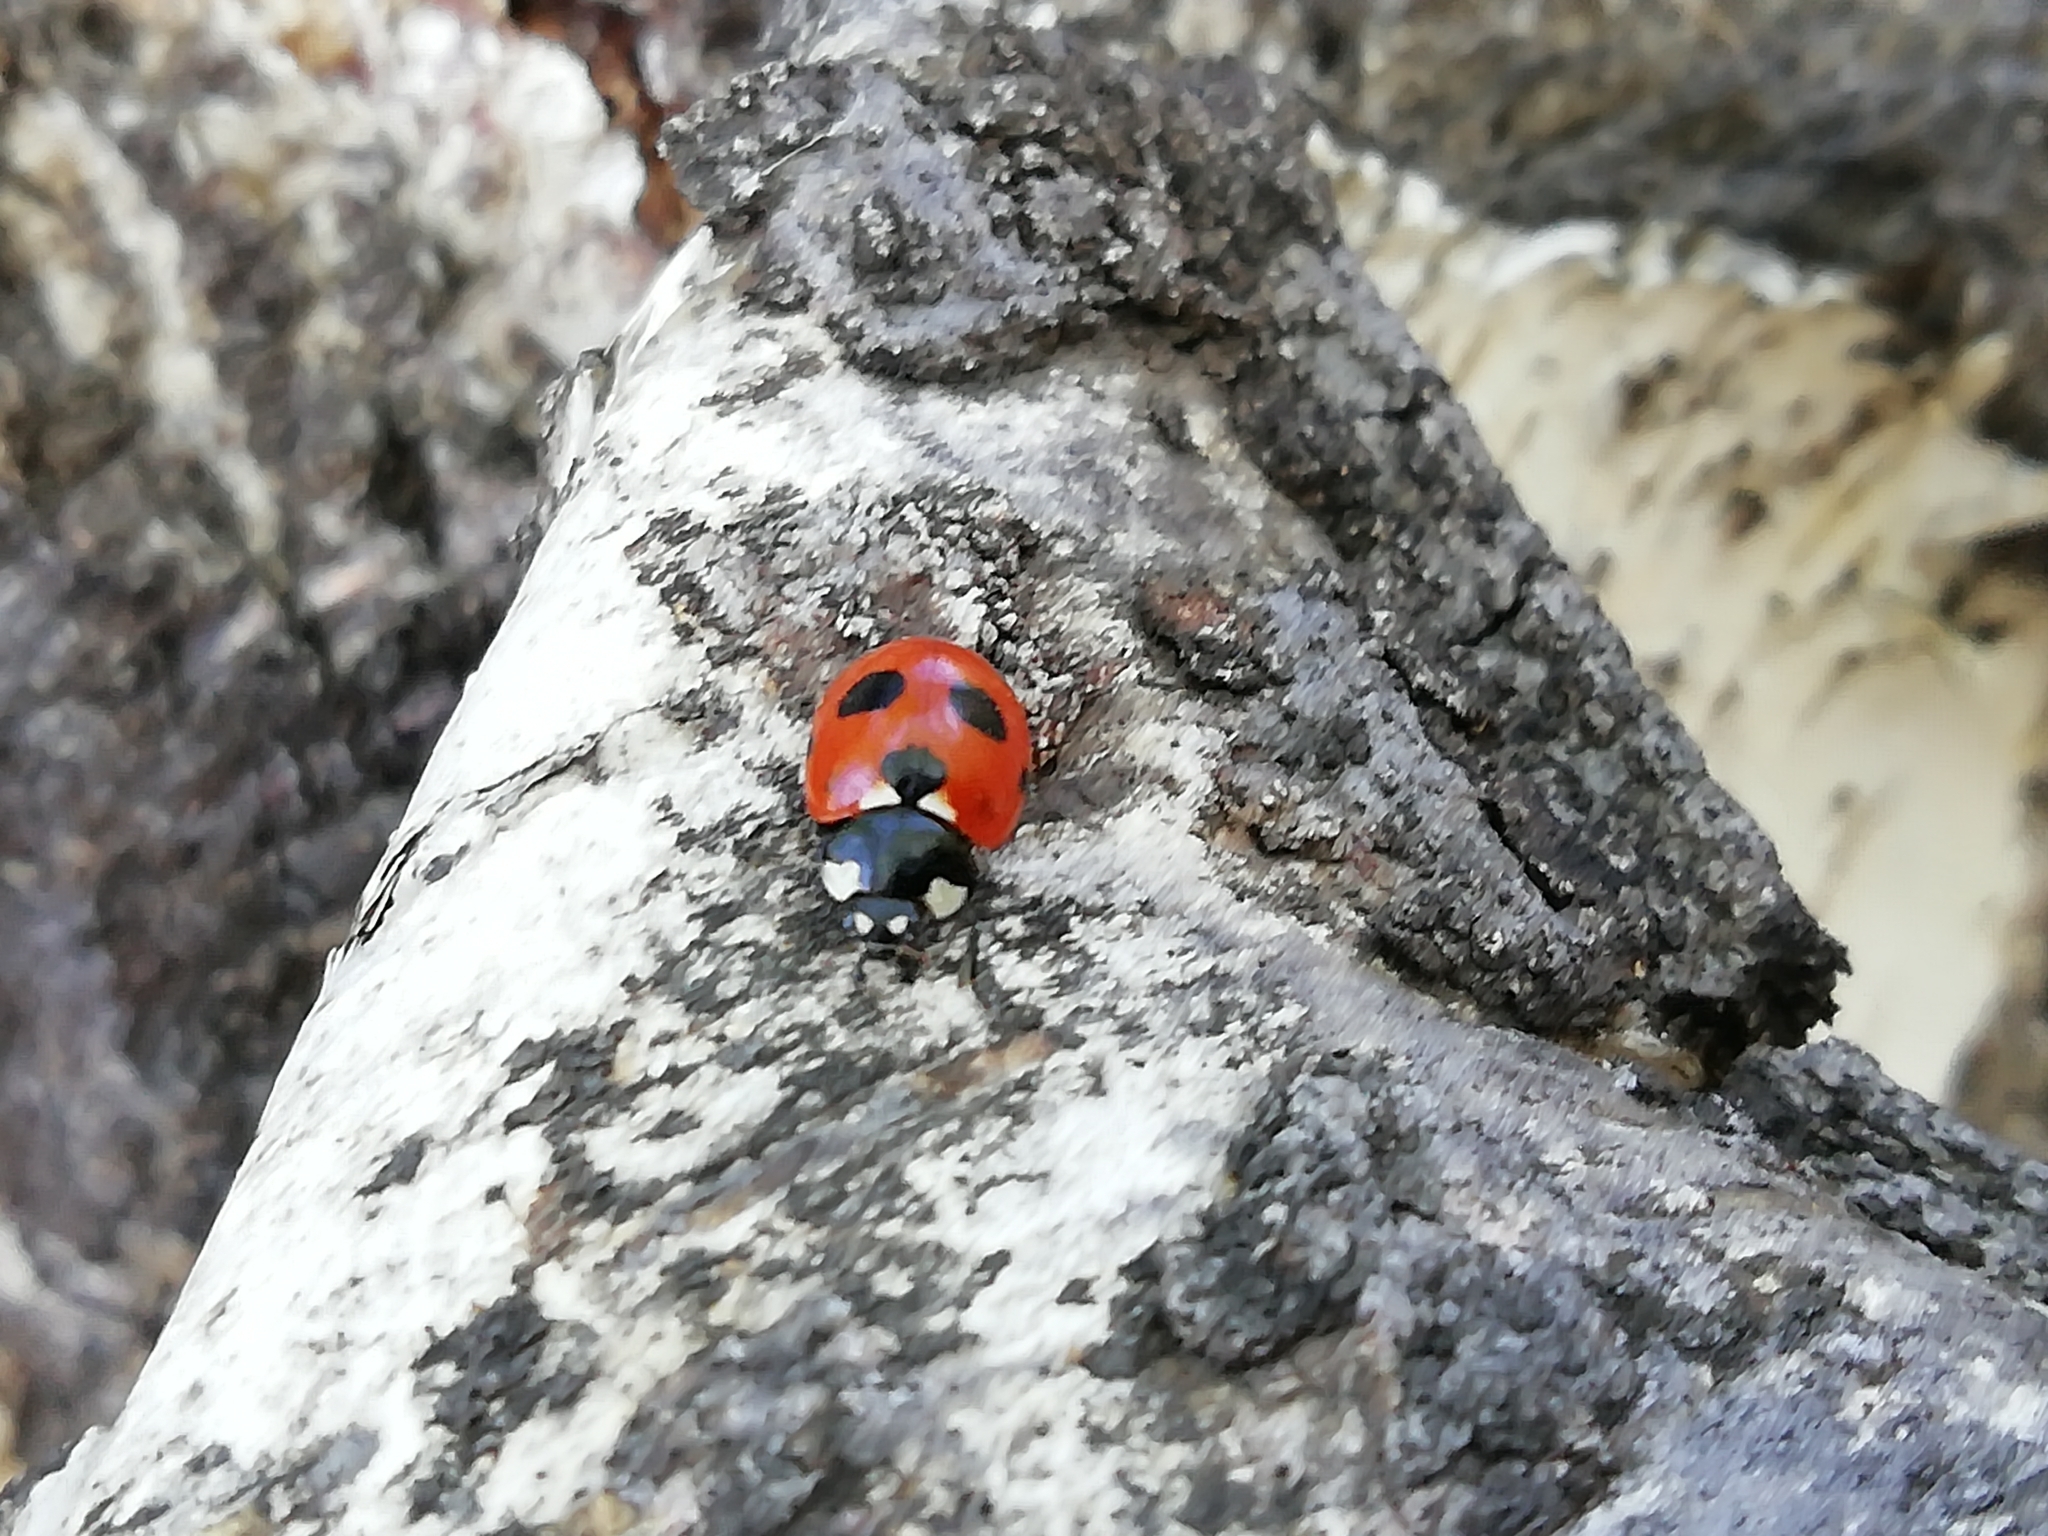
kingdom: Animalia
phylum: Arthropoda
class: Insecta
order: Coleoptera
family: Coccinellidae
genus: Coccinella
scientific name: Coccinella magnifica
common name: Scarce 7-spot ladybird
